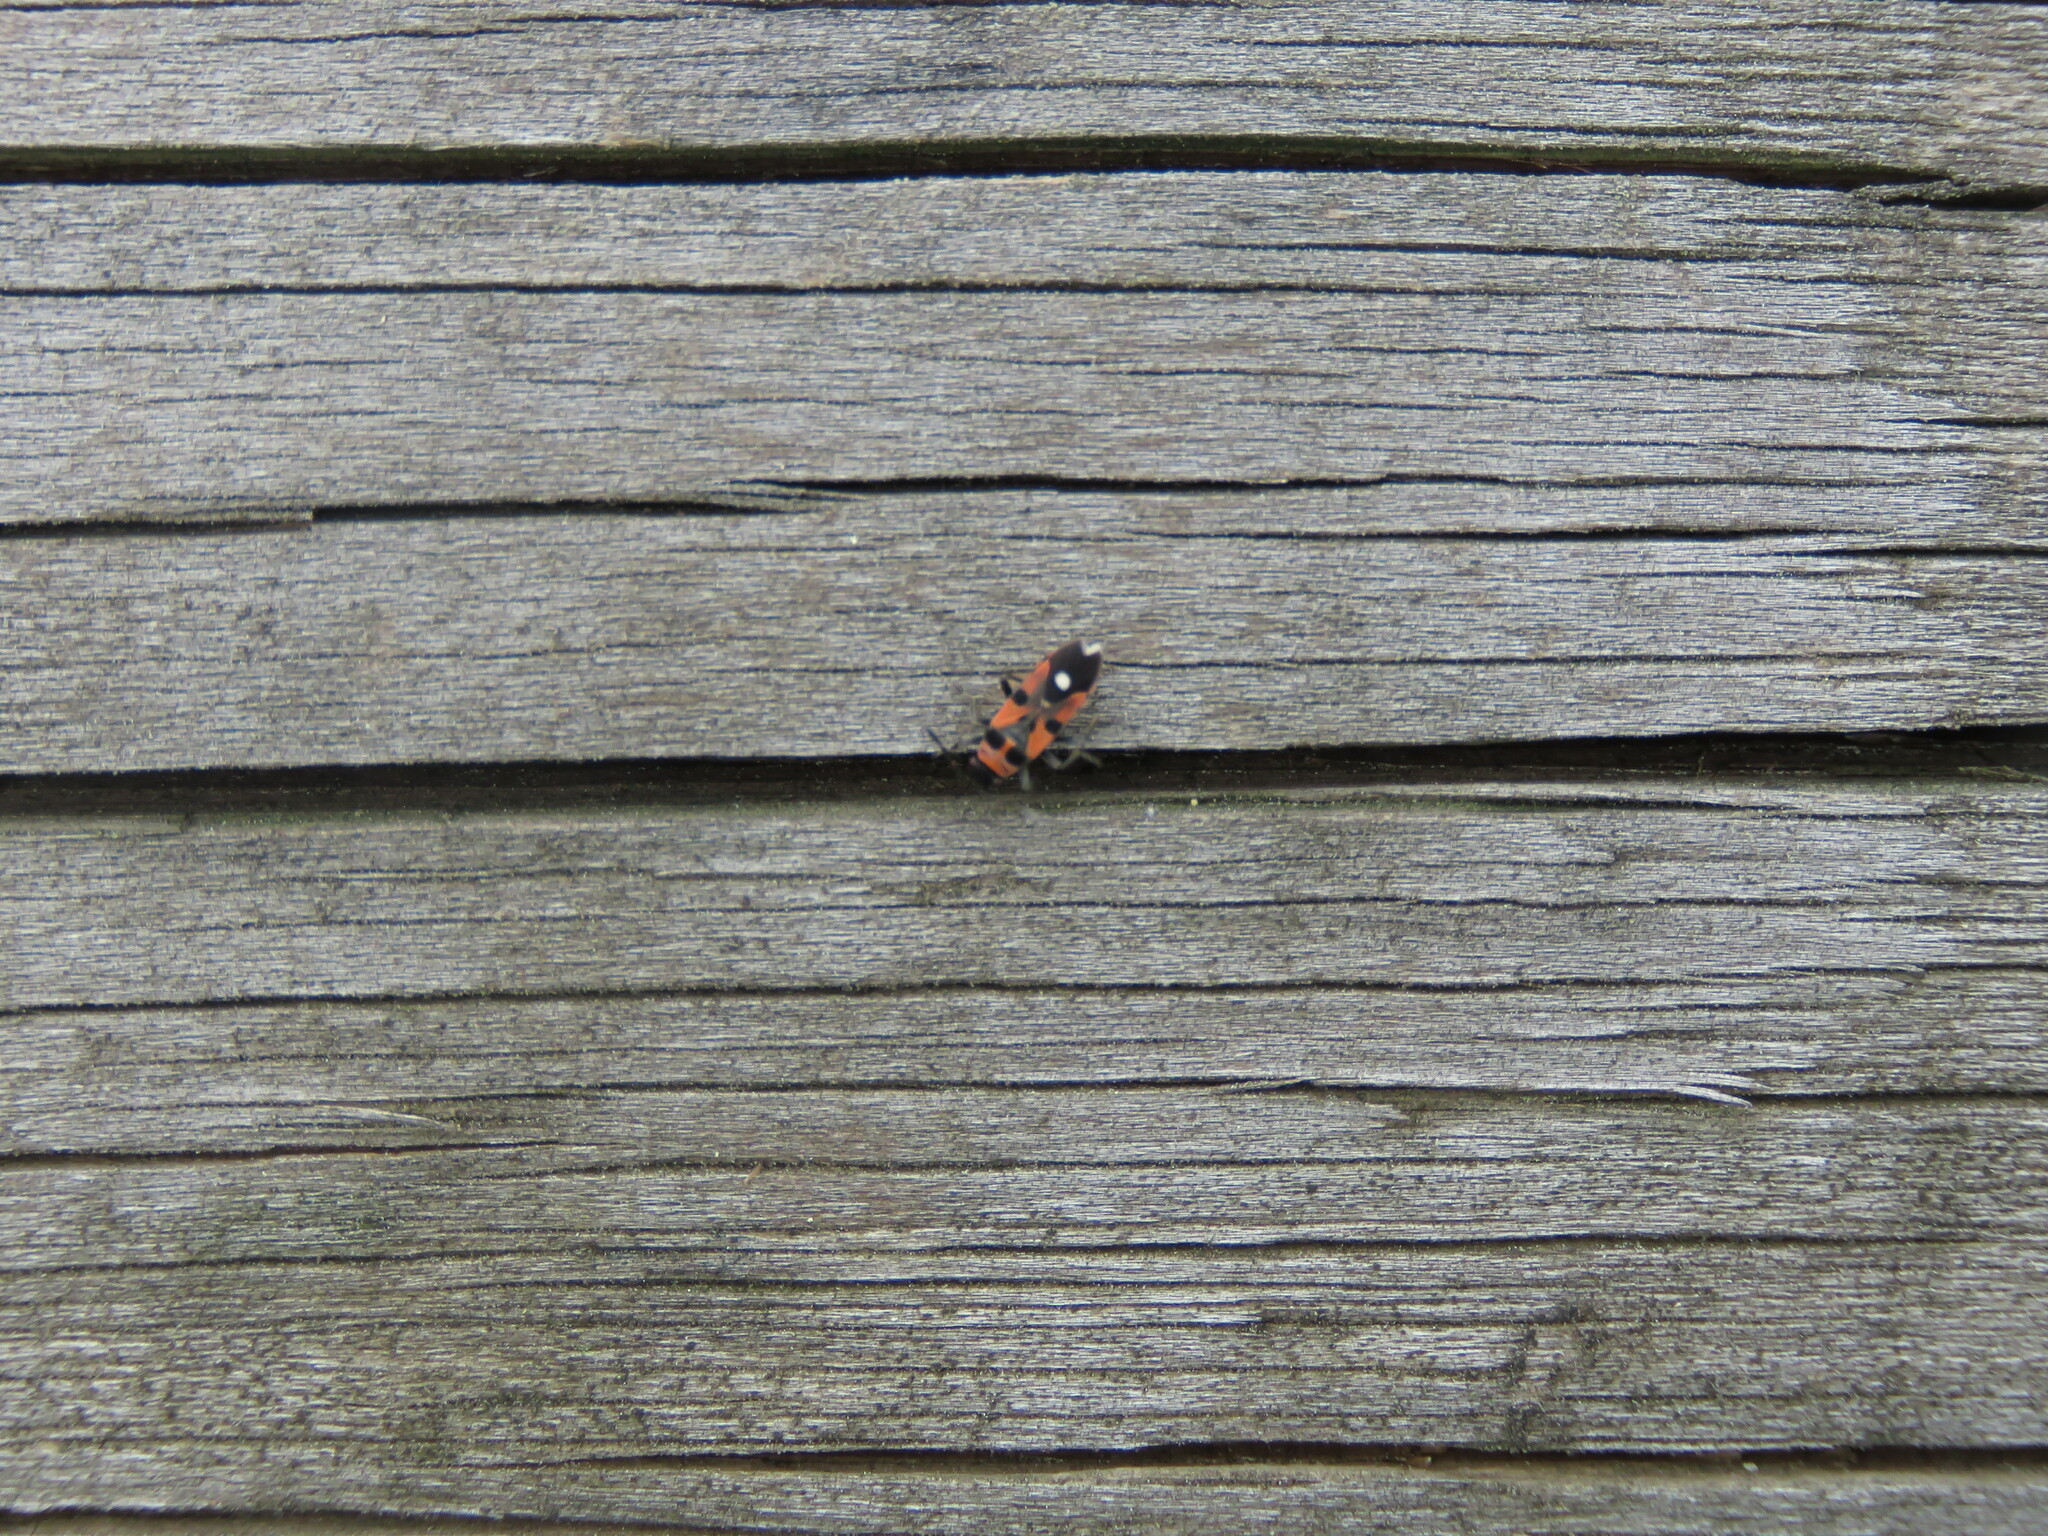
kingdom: Animalia
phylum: Arthropoda
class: Insecta
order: Hemiptera
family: Lygaeidae
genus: Horvathiolus
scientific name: Horvathiolus superbus
